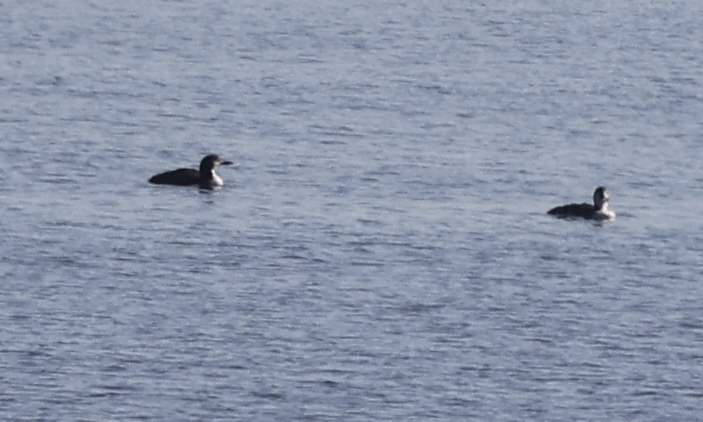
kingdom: Animalia
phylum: Chordata
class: Aves
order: Gaviiformes
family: Gaviidae
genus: Gavia
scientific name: Gavia immer
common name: Common loon
